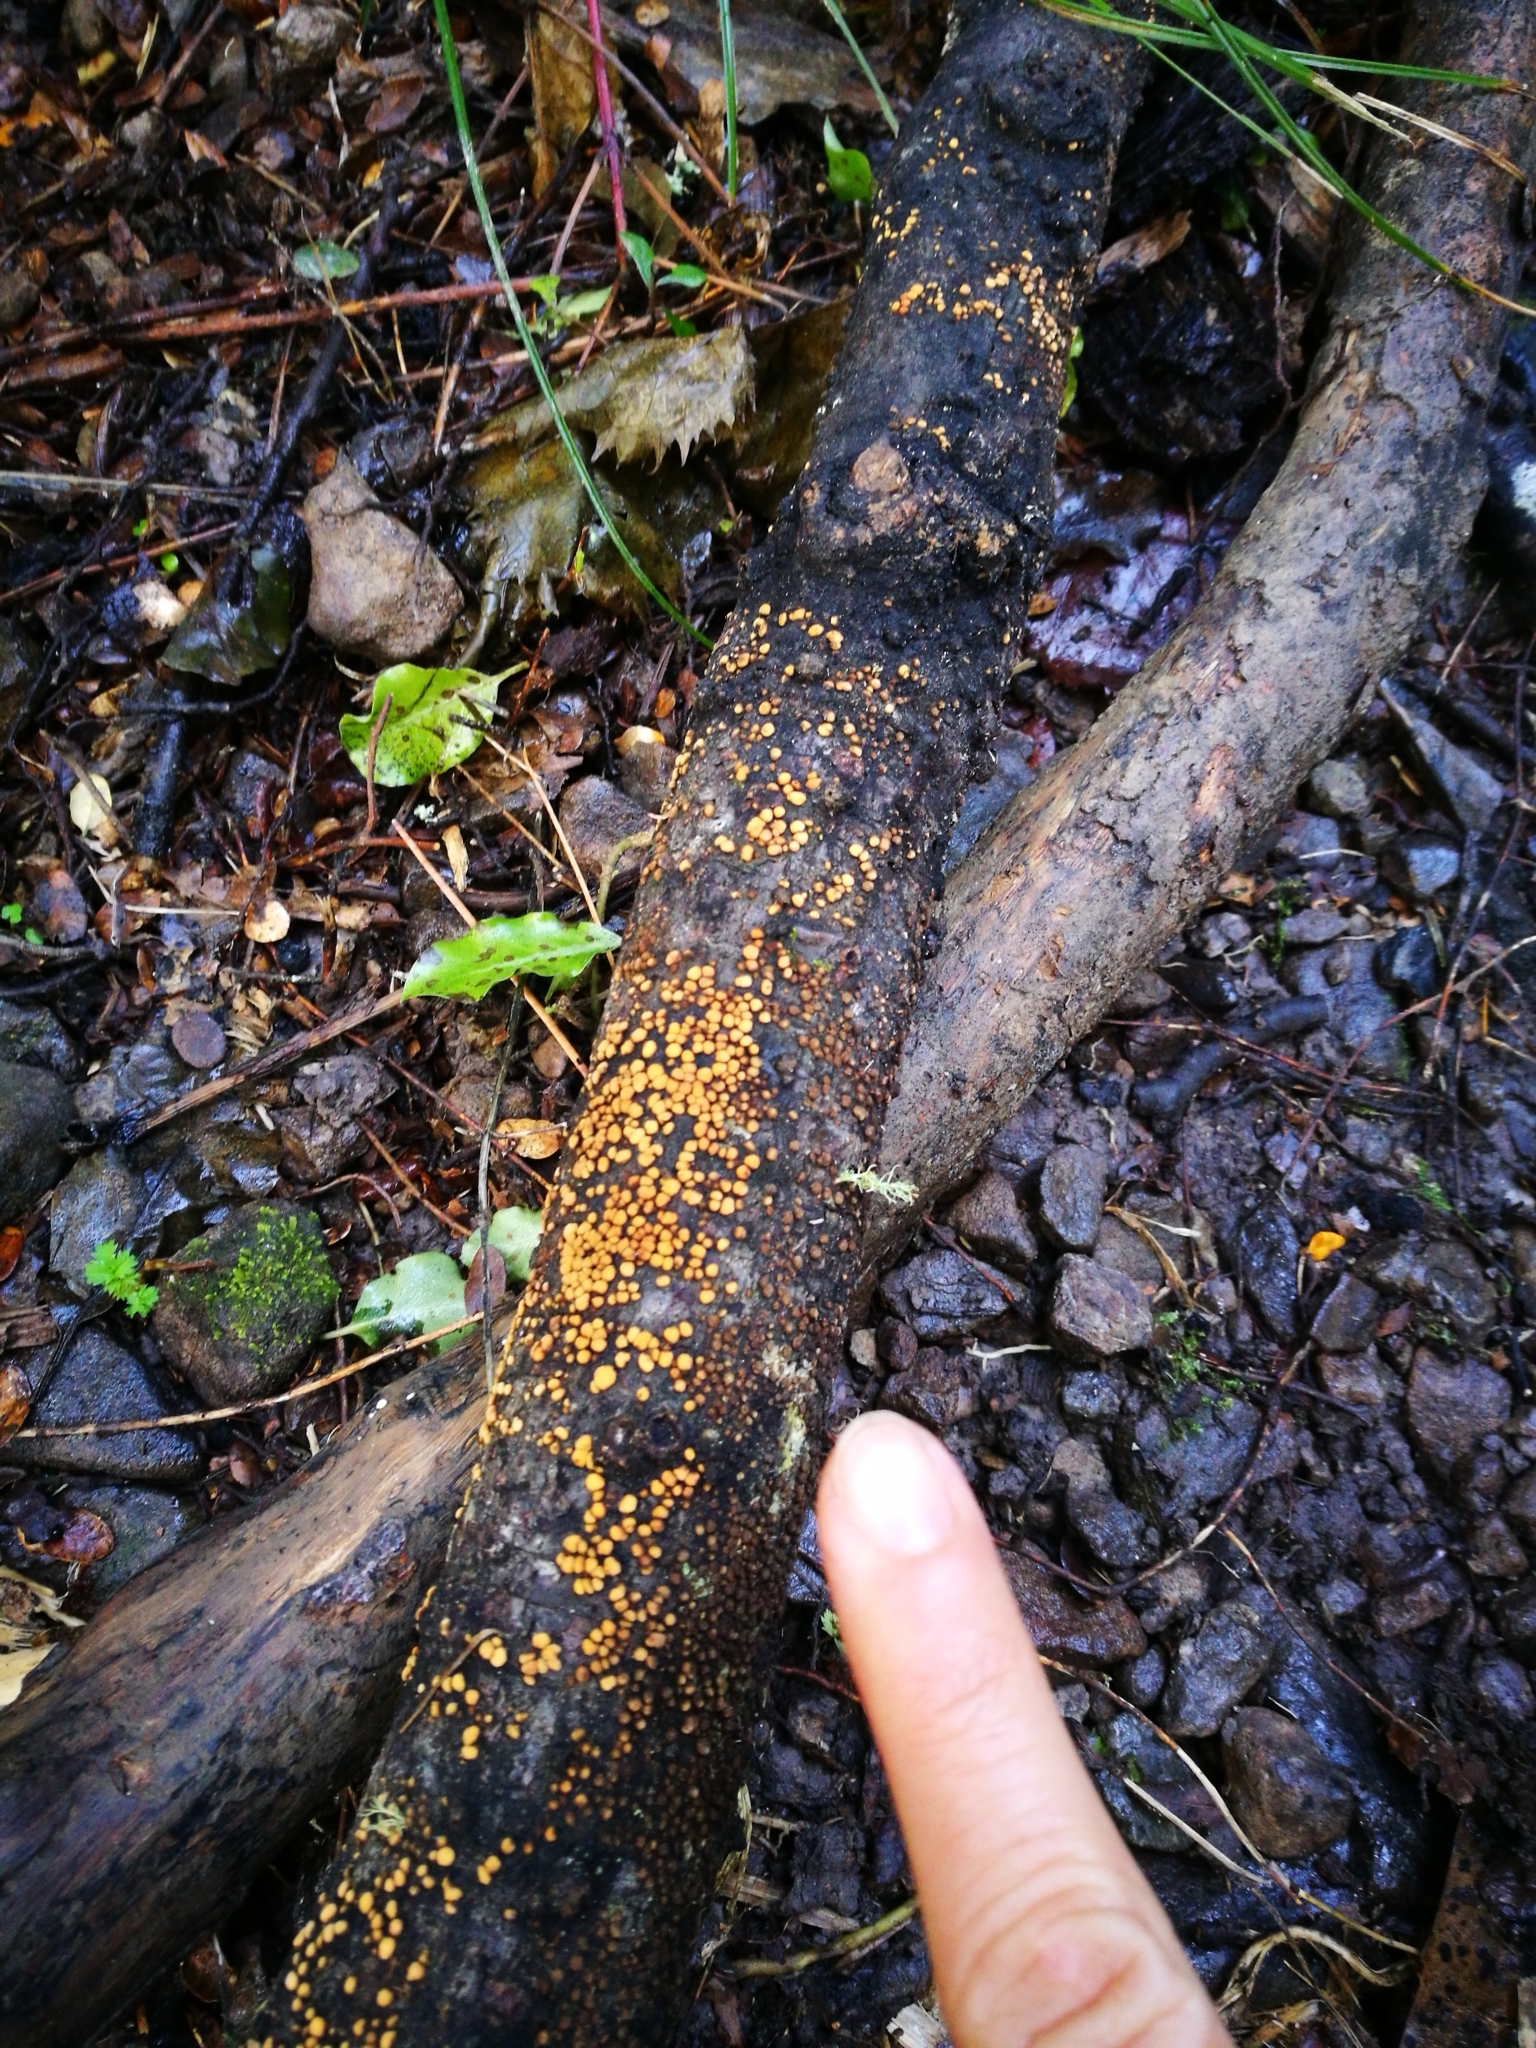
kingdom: Fungi
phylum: Basidiomycota
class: Agaricomycetes
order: Russulales
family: Stereaceae
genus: Aleurodiscus
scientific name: Aleurodiscus berggrenii
